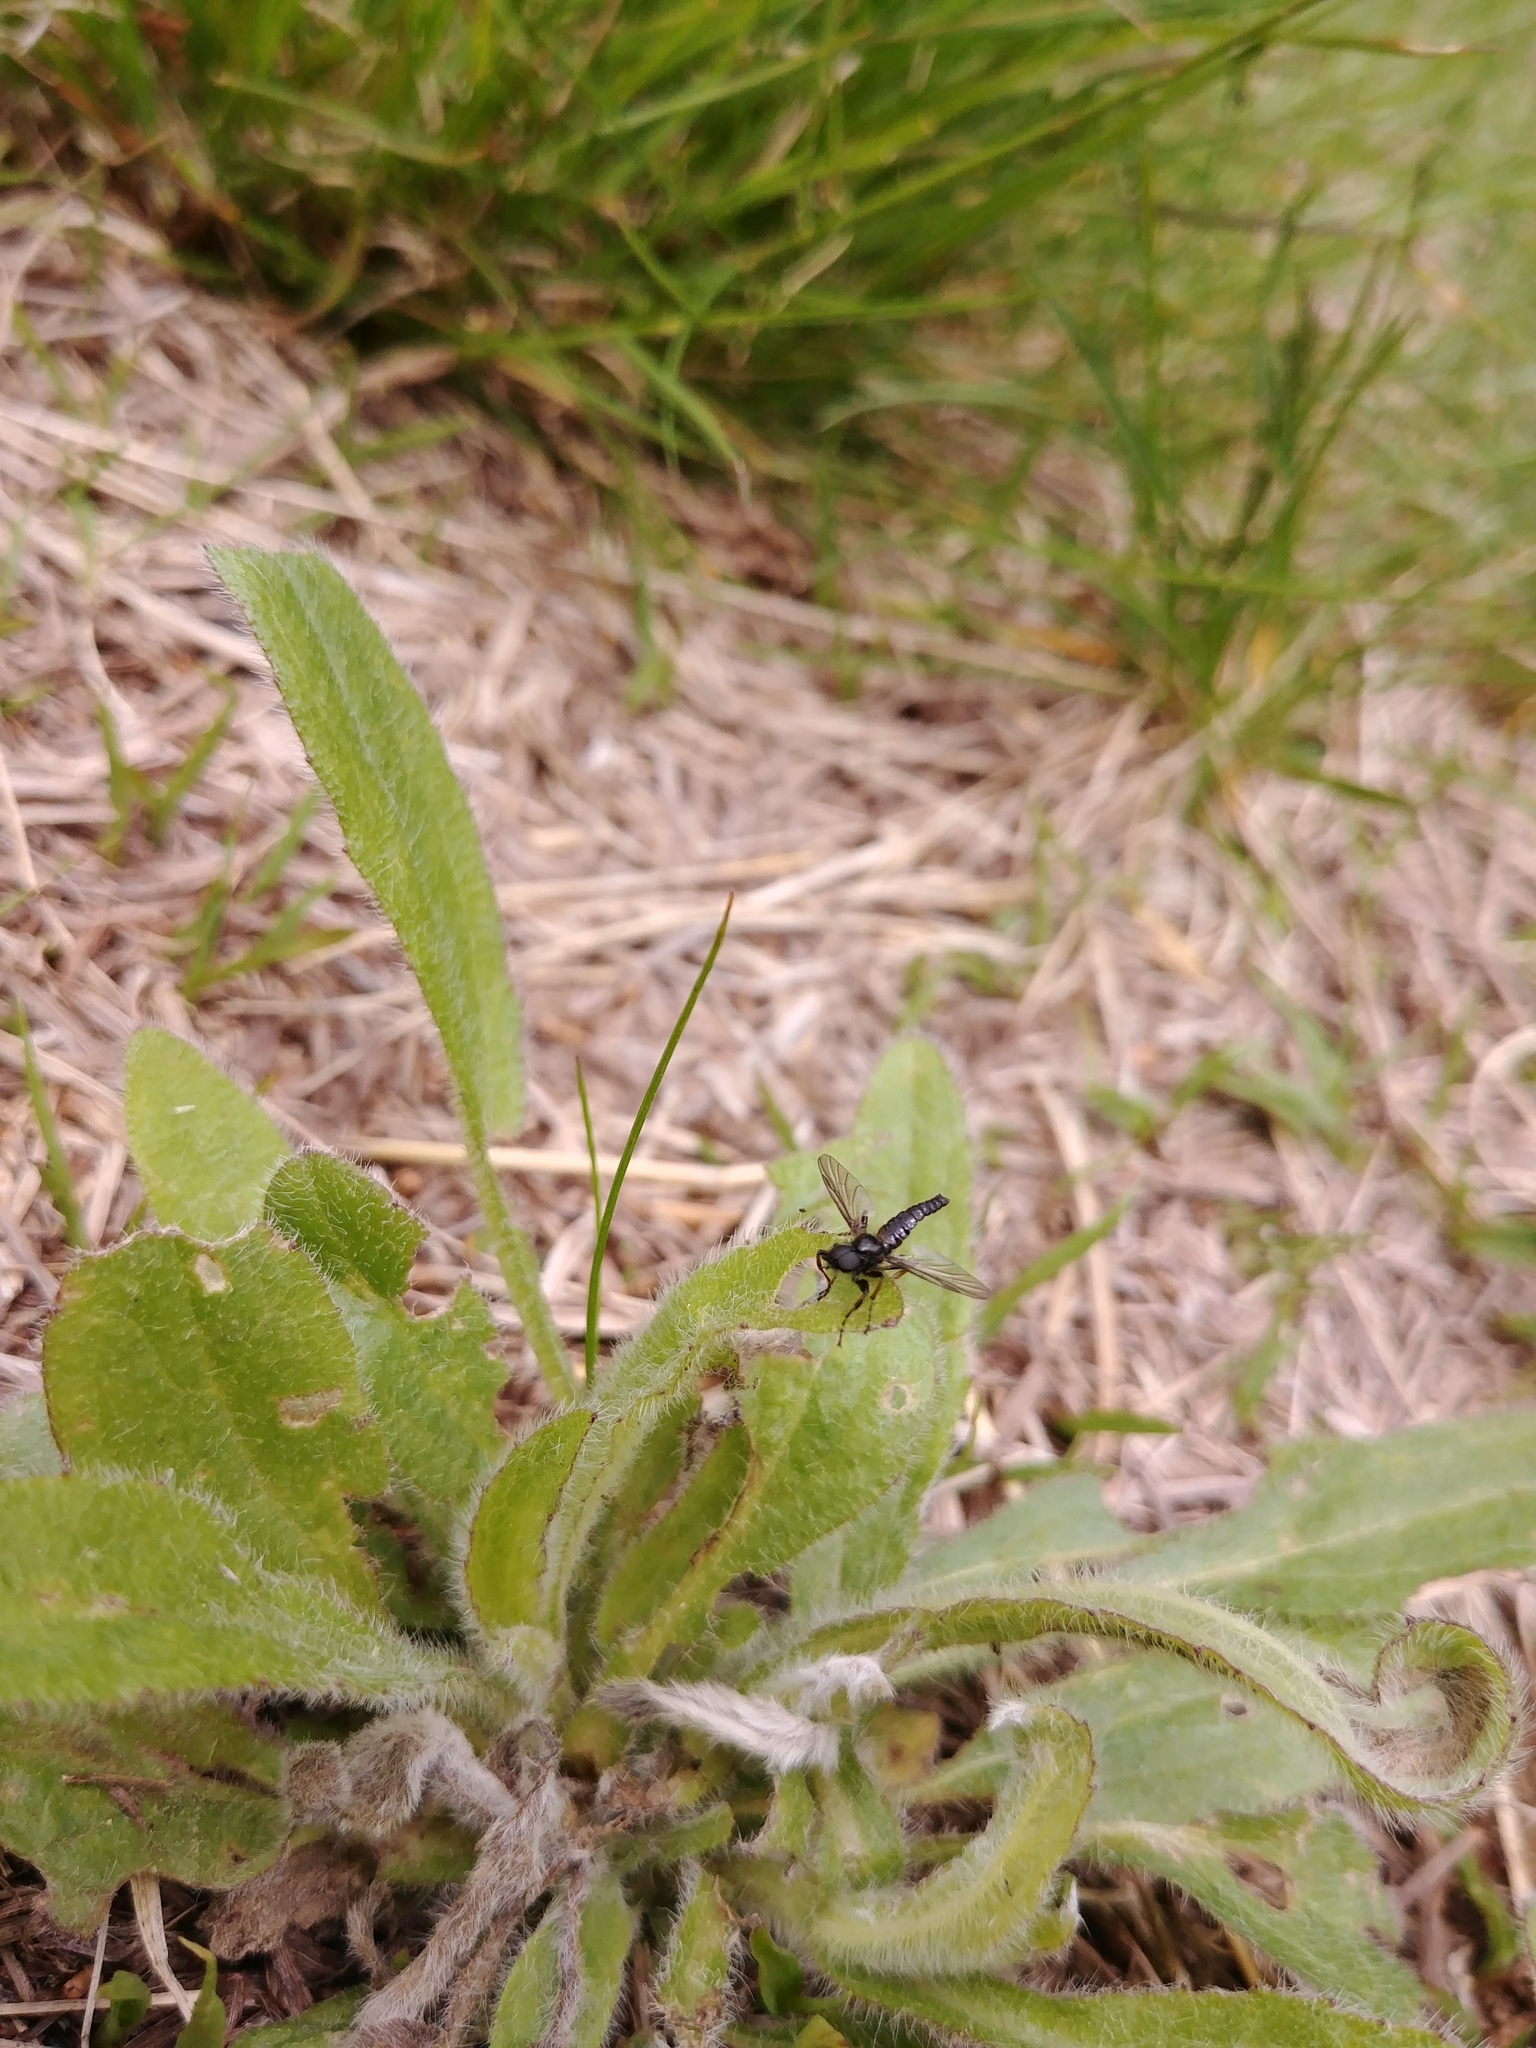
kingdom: Animalia
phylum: Arthropoda
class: Insecta
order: Diptera
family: Bibionidae
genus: Bibio
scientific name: Bibio lanigerus
